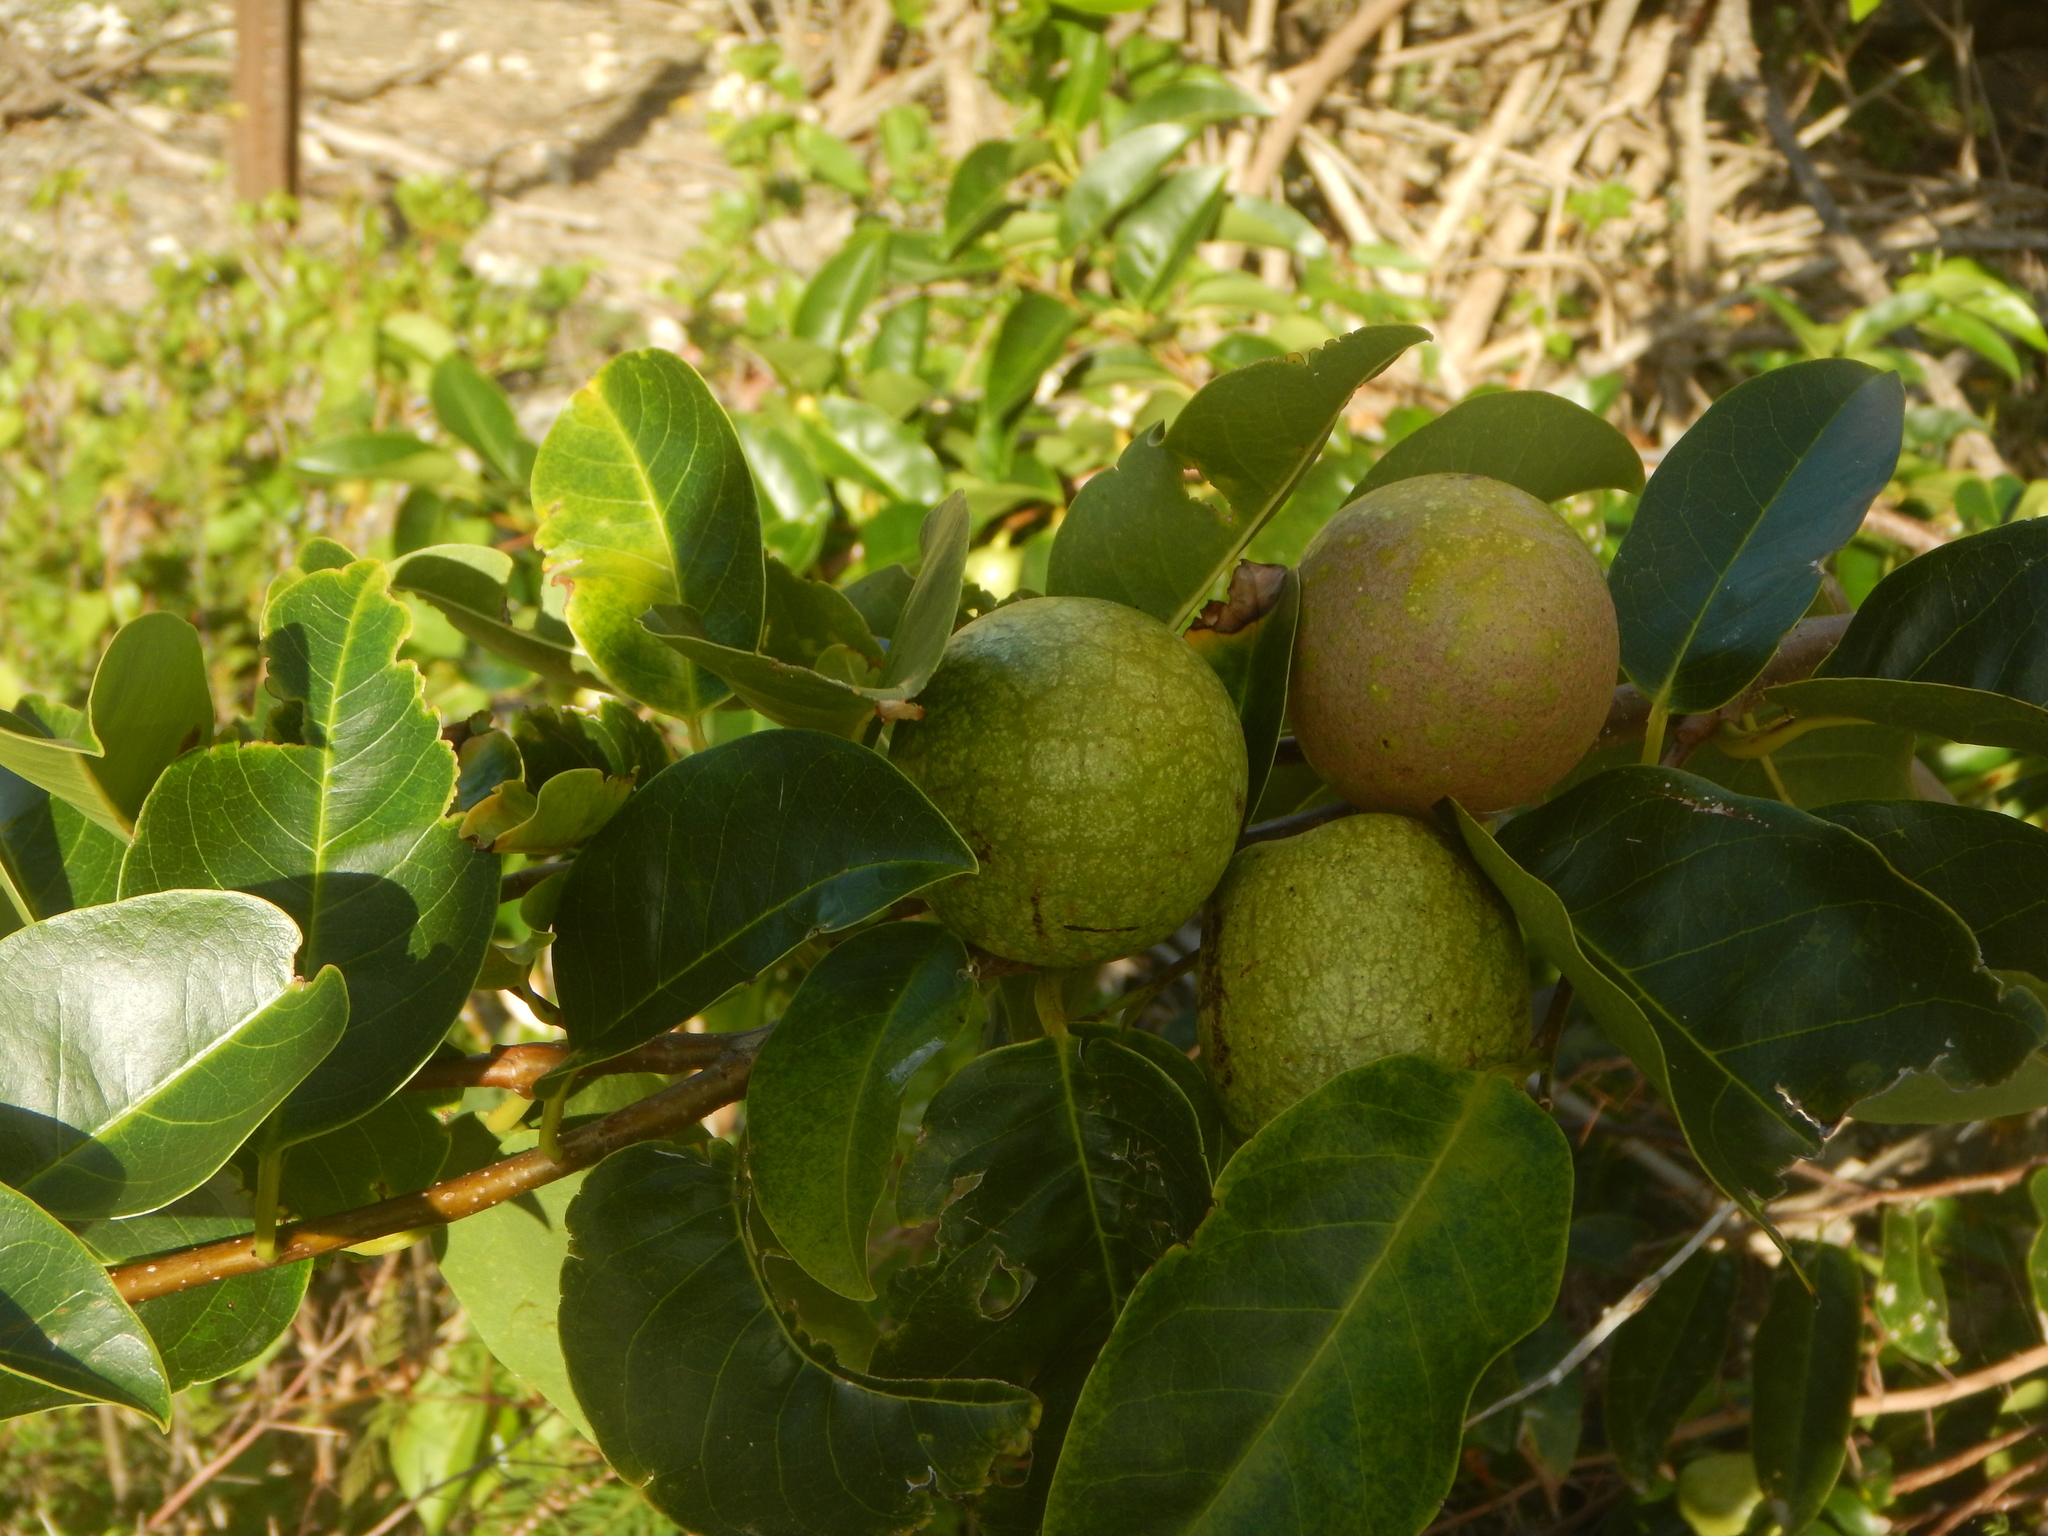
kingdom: Plantae
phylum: Tracheophyta
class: Magnoliopsida
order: Magnoliales
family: Annonaceae
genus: Annona
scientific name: Annona glabra
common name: Monkey apple
